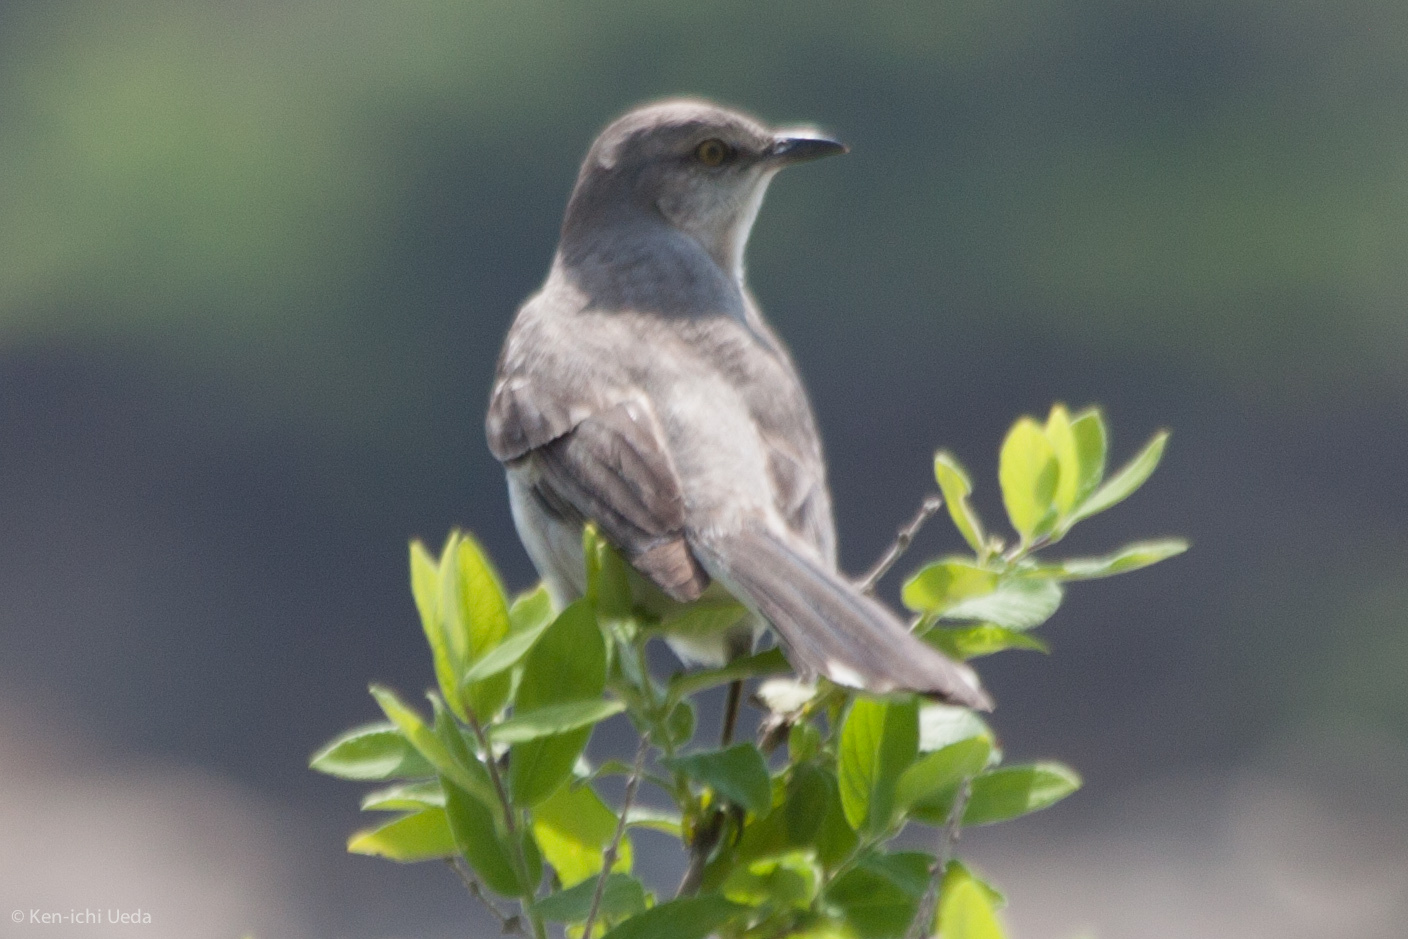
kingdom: Animalia
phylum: Chordata
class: Aves
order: Passeriformes
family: Mimidae
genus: Mimus
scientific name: Mimus polyglottos
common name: Northern mockingbird
